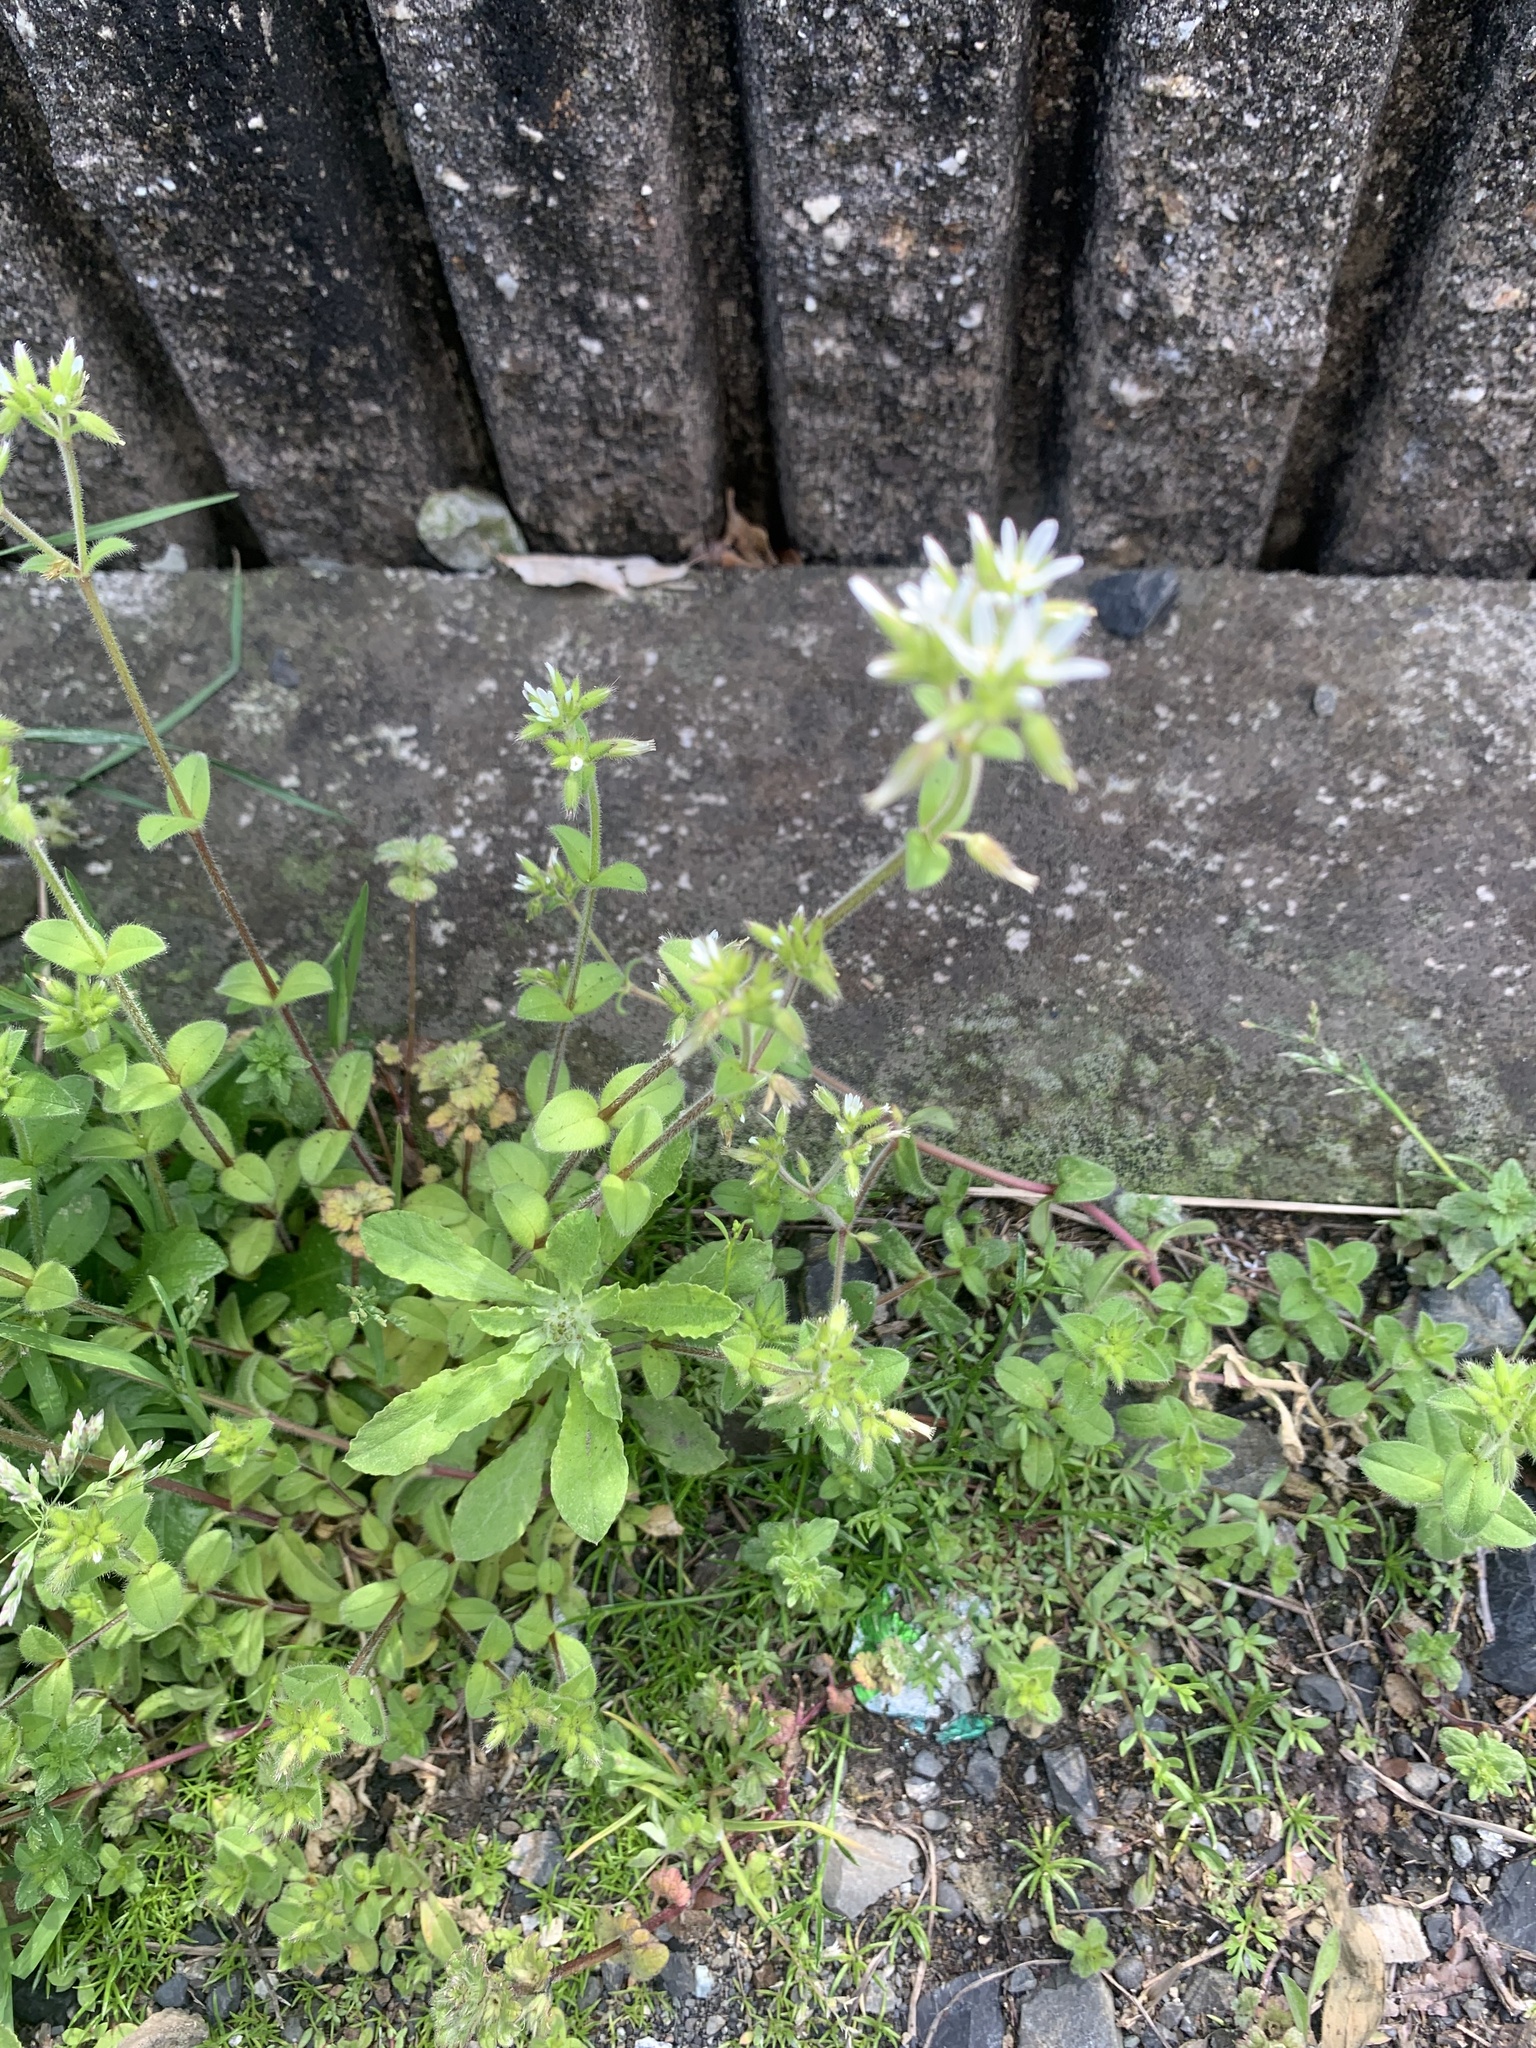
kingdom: Plantae
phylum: Tracheophyta
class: Magnoliopsida
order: Caryophyllales
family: Caryophyllaceae
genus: Cerastium
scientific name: Cerastium glomeratum
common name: Sticky chickweed
